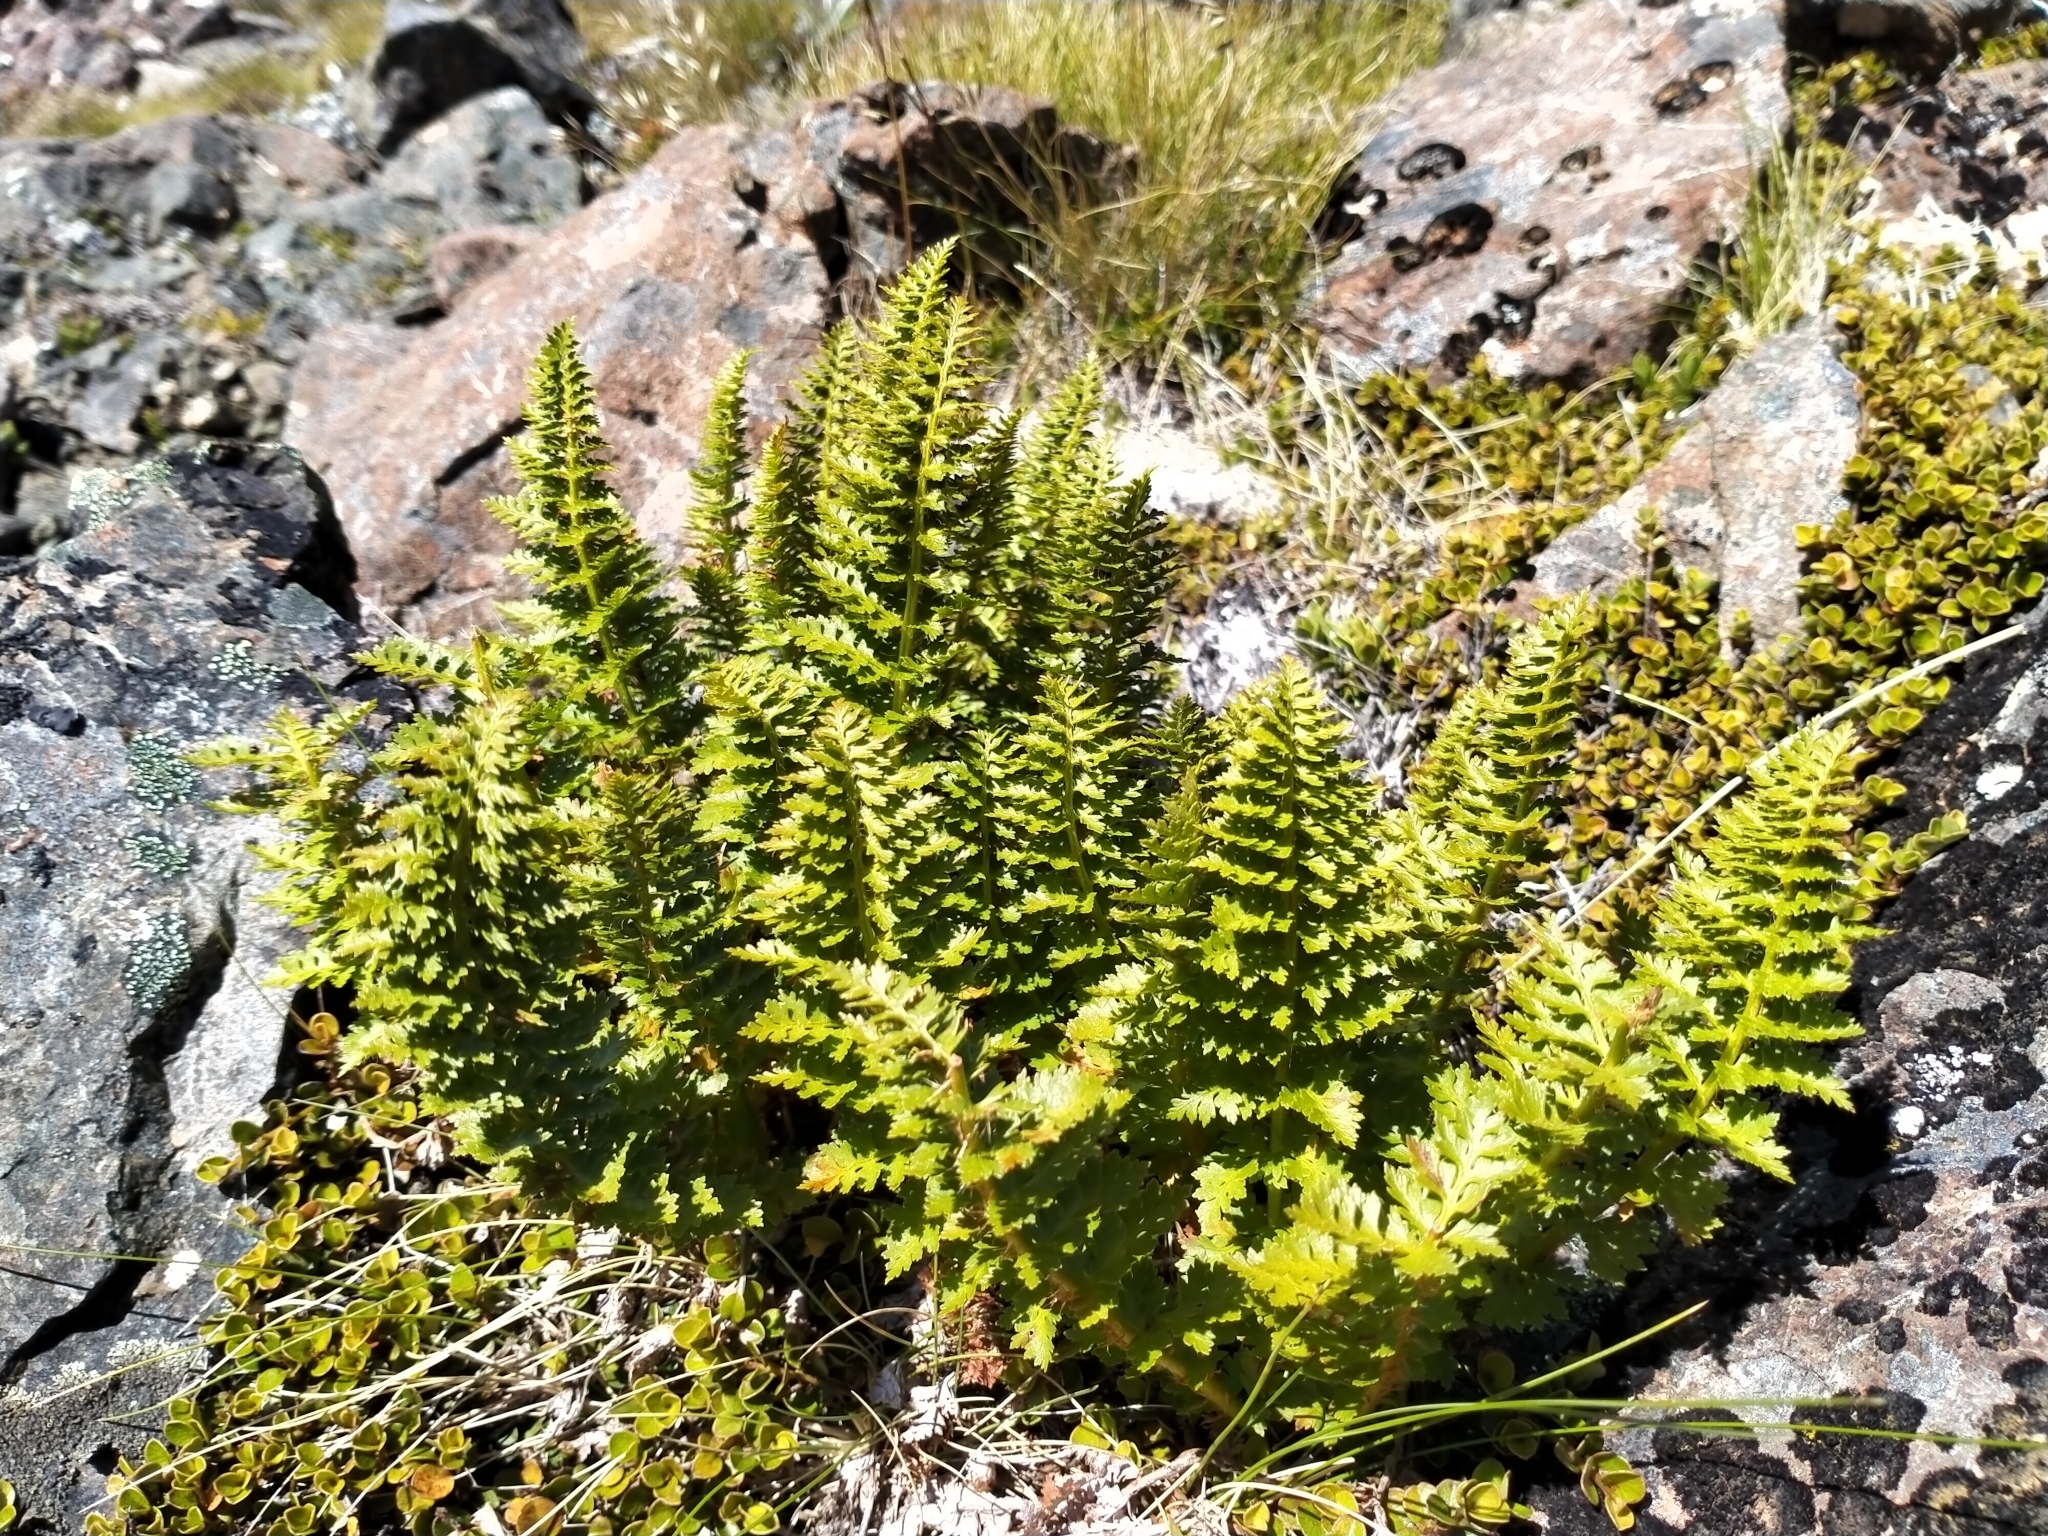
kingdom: Plantae
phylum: Tracheophyta
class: Polypodiopsida
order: Polypodiales
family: Dryopteridaceae
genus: Polystichum
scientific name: Polystichum cystostegia
